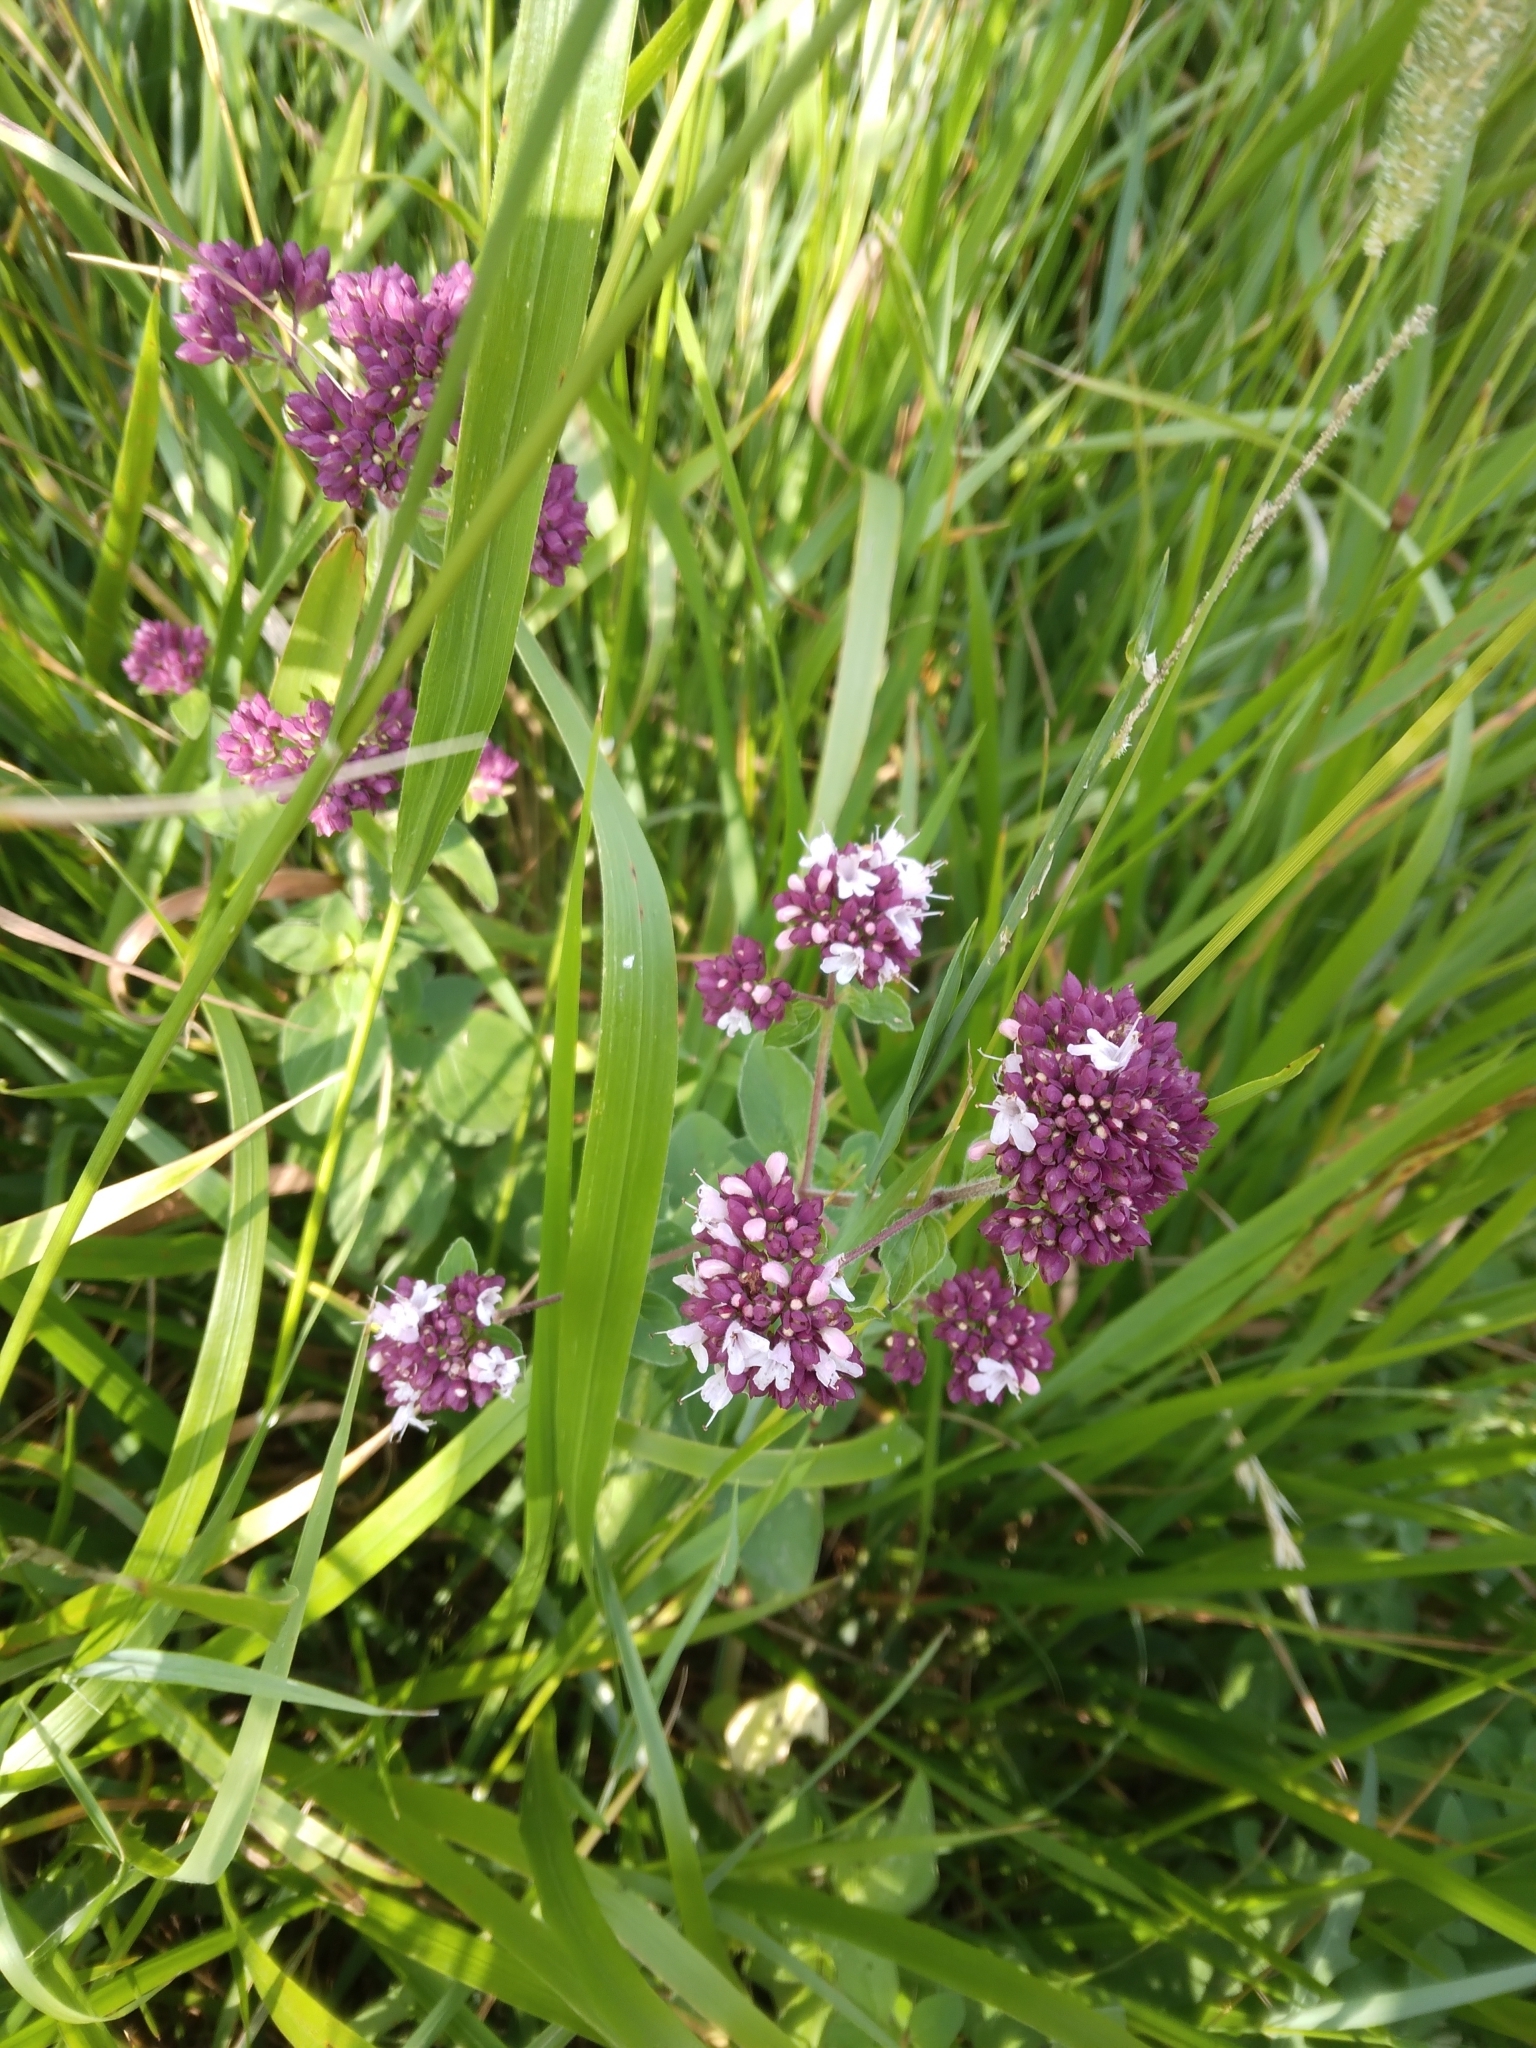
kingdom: Plantae
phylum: Tracheophyta
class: Magnoliopsida
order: Lamiales
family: Lamiaceae
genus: Origanum
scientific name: Origanum vulgare
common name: Wild marjoram
